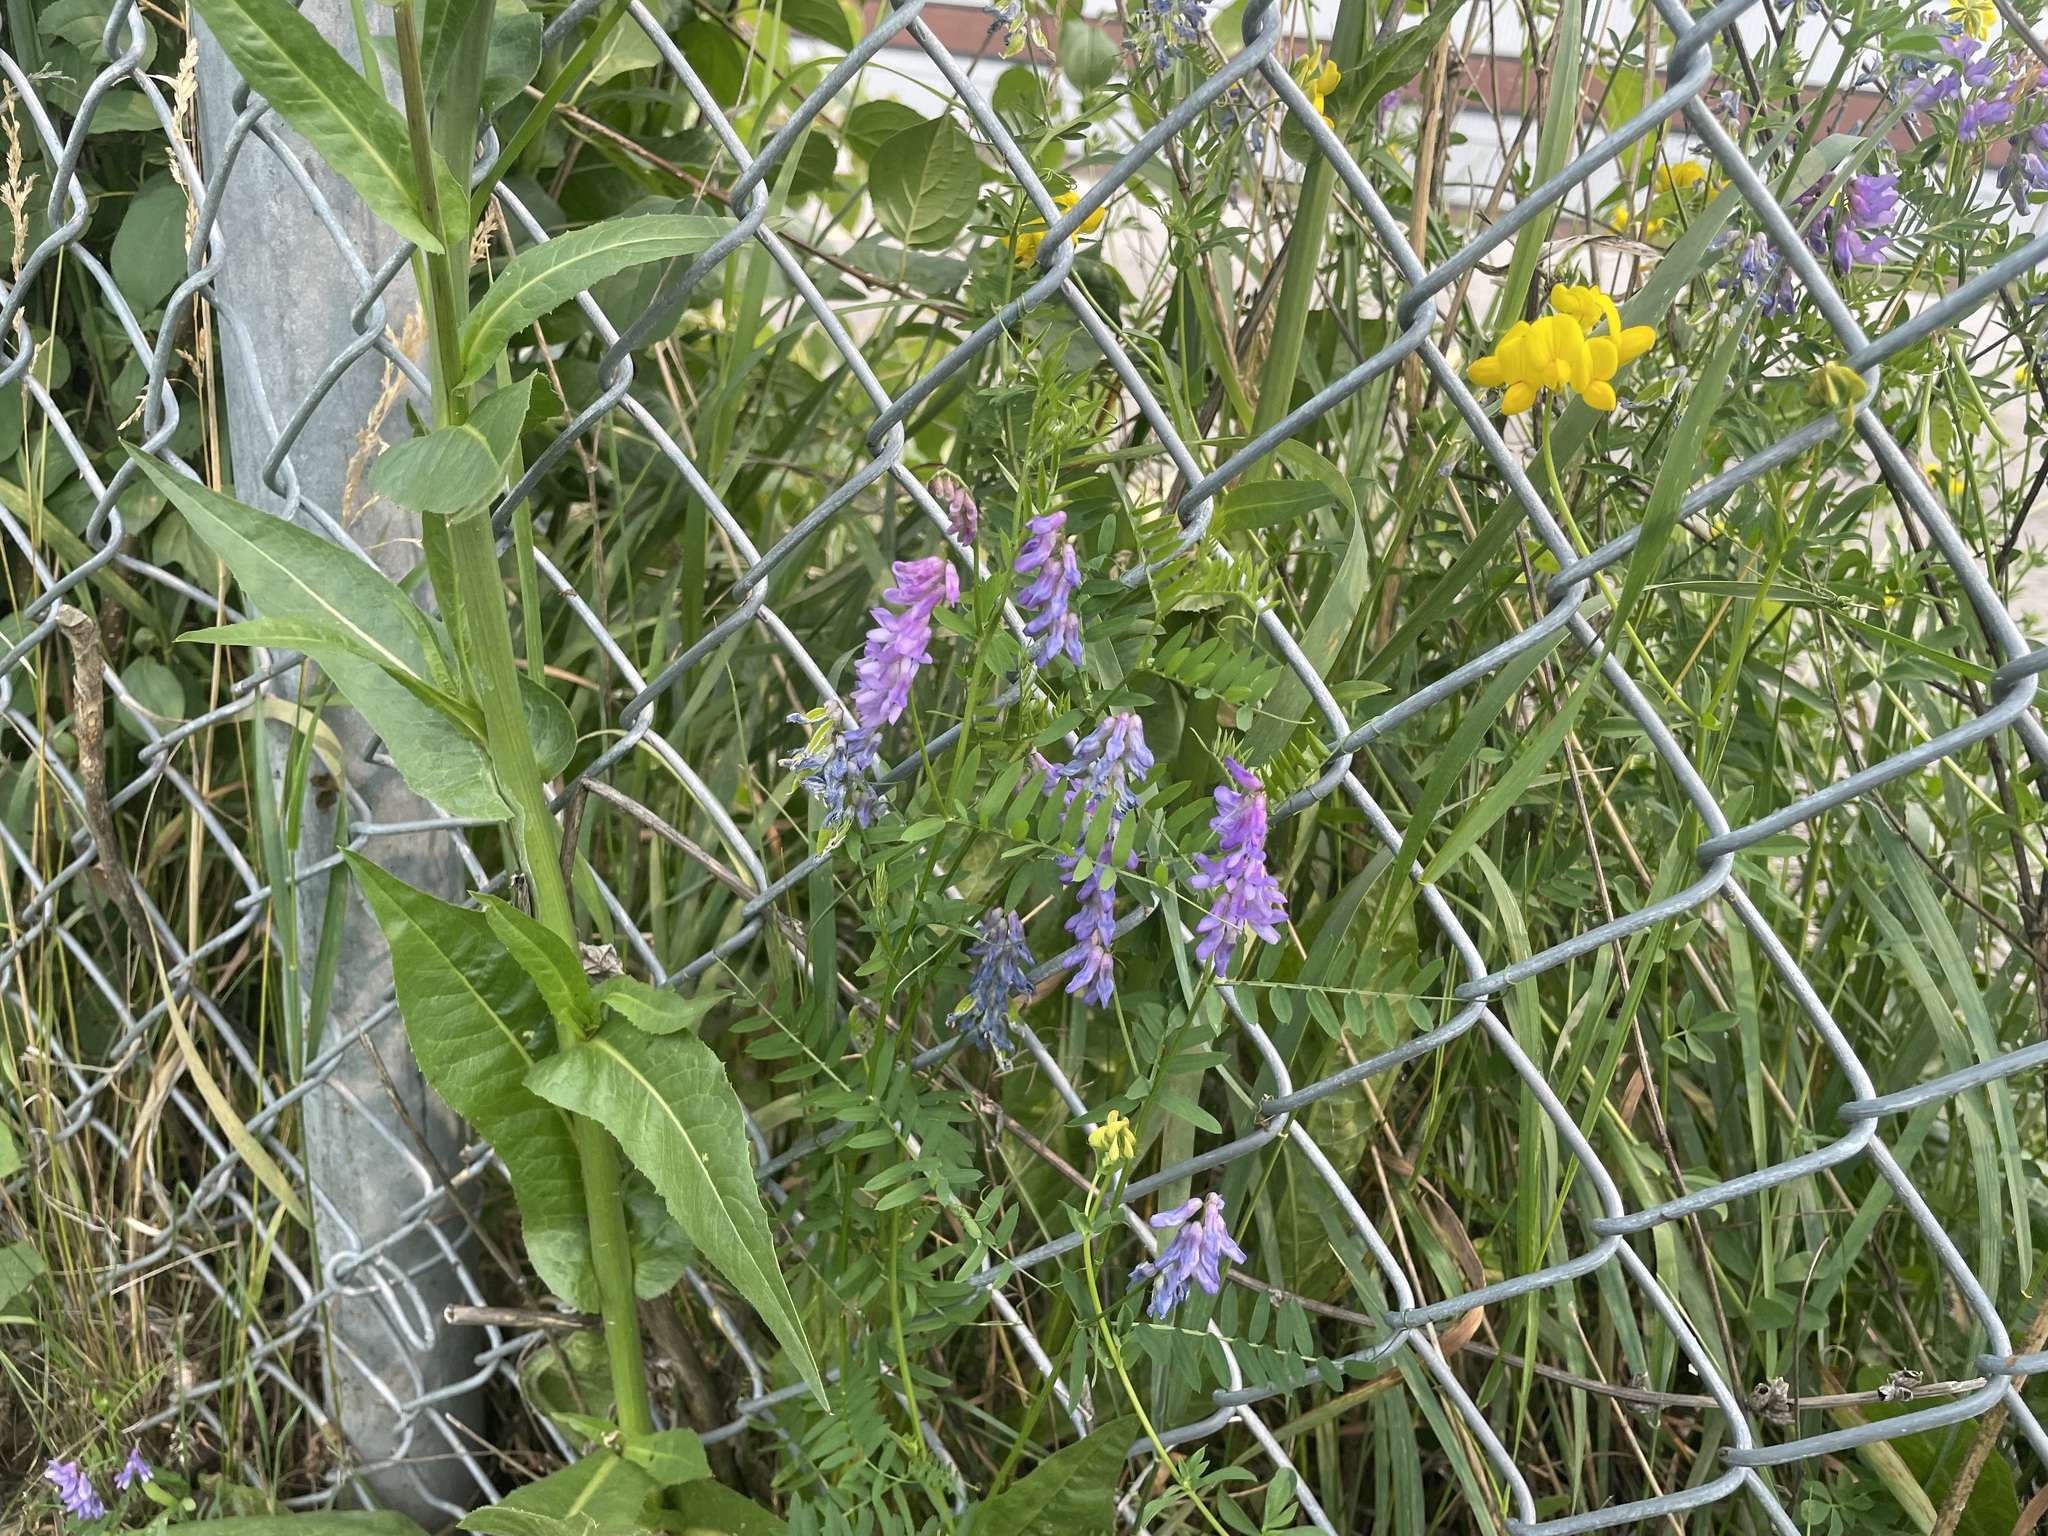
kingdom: Plantae
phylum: Tracheophyta
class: Magnoliopsida
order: Fabales
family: Fabaceae
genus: Vicia
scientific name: Vicia cracca
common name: Bird vetch
